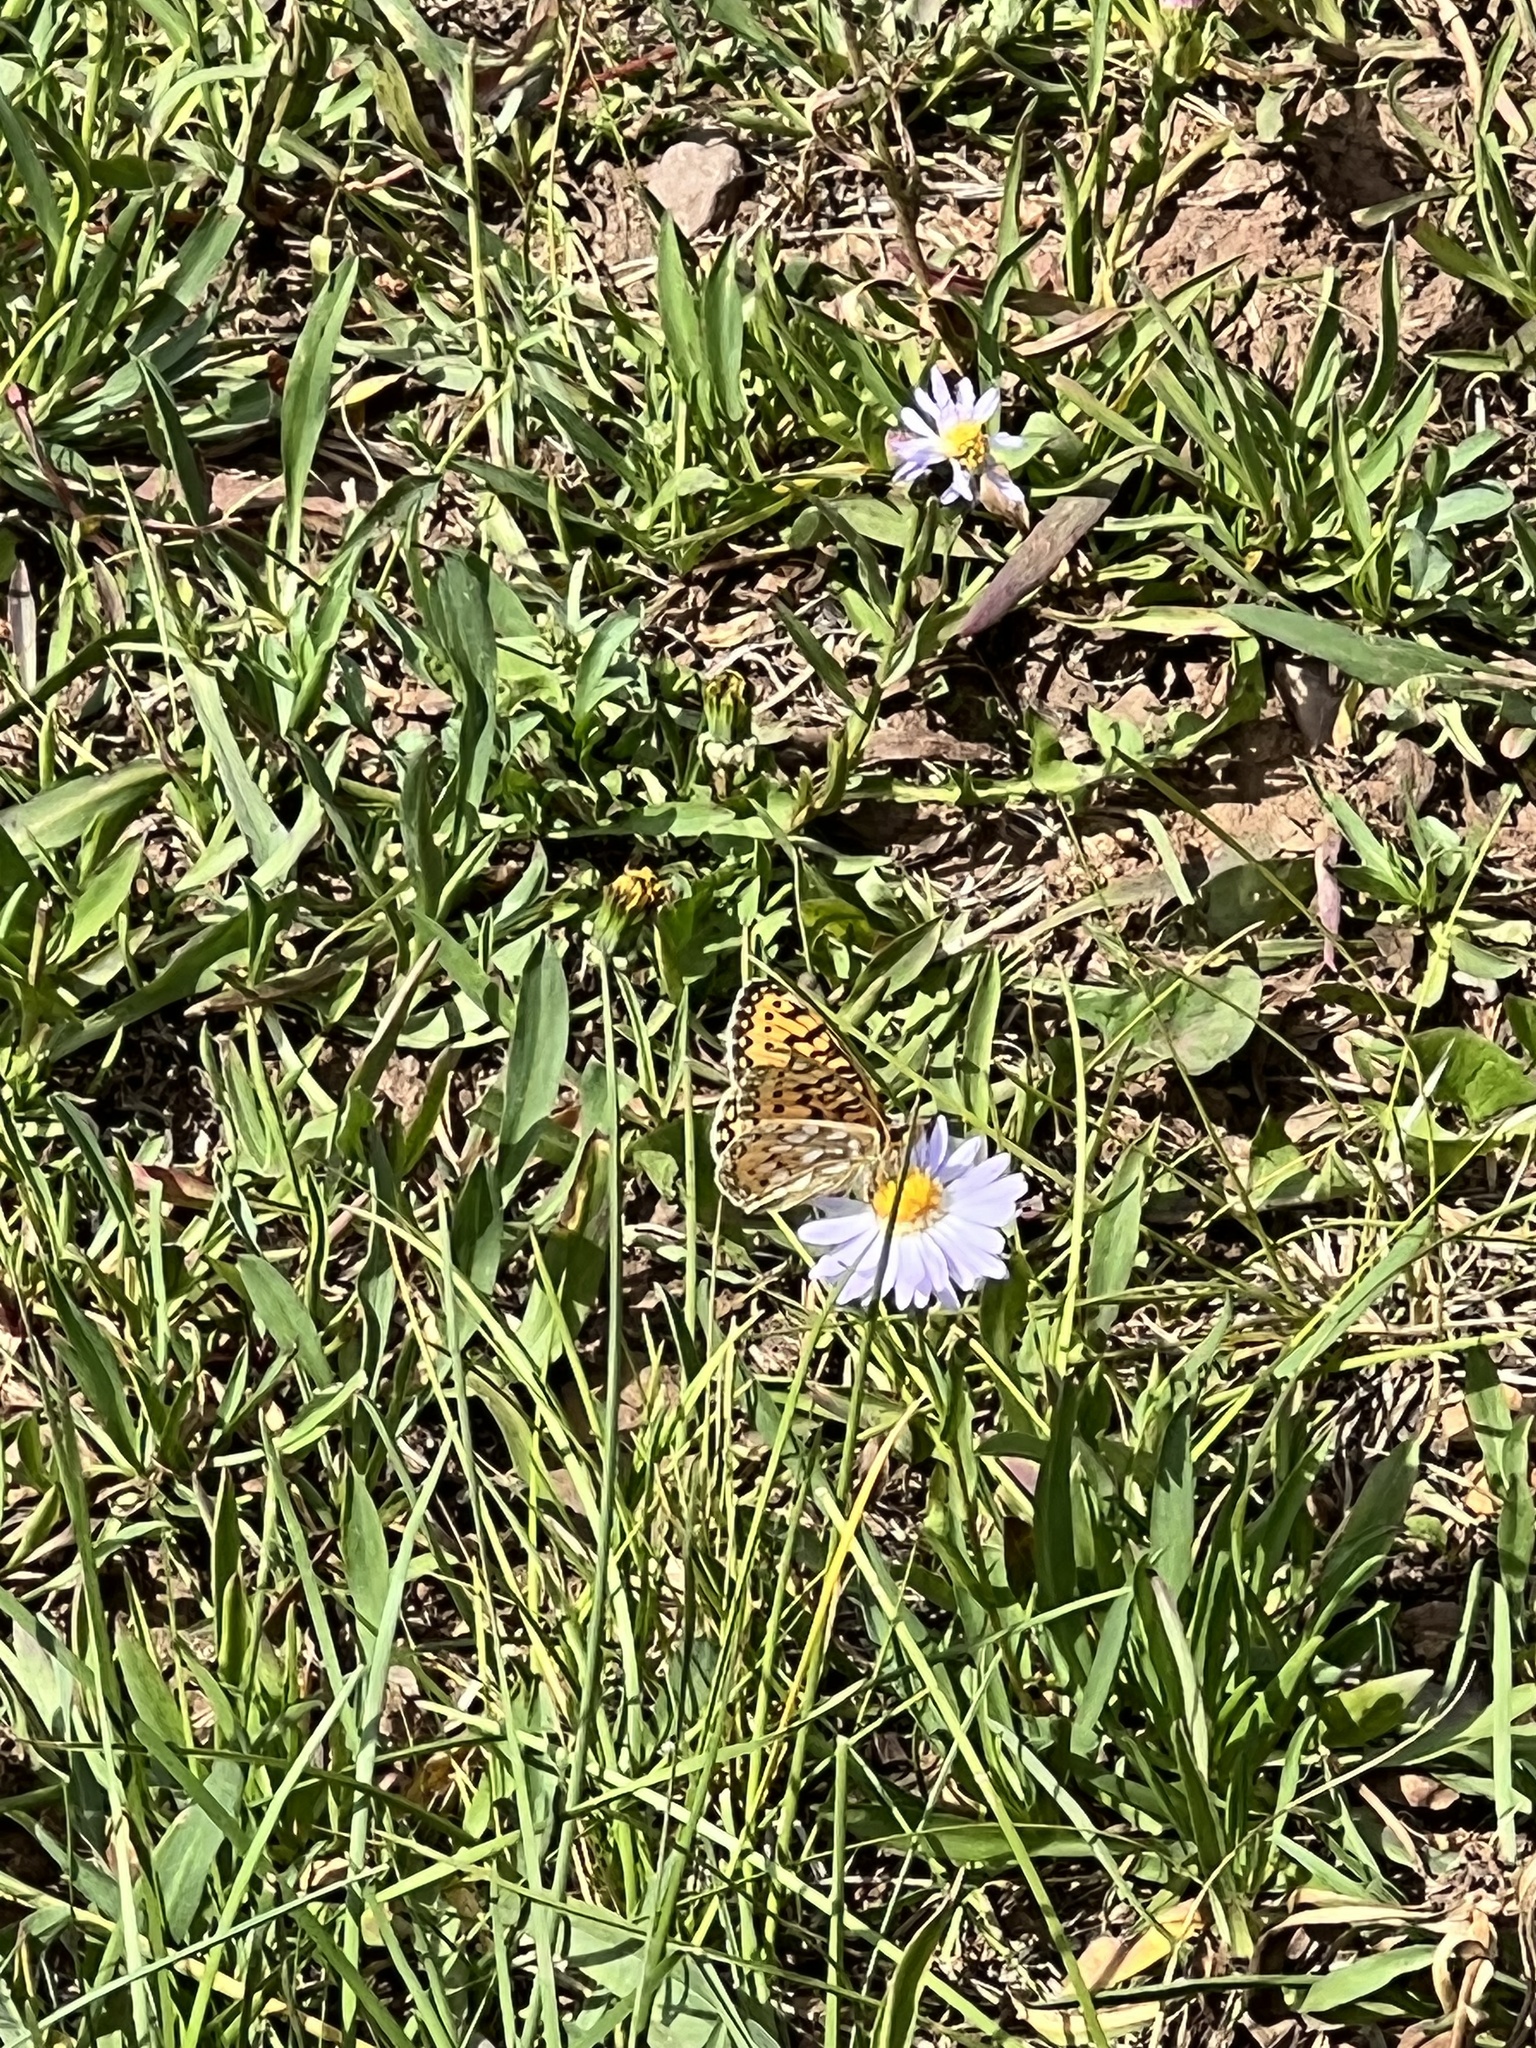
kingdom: Animalia
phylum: Arthropoda
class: Insecta
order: Lepidoptera
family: Nymphalidae
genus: Speyeria
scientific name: Speyeria mormonia
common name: Mormon fritillary
